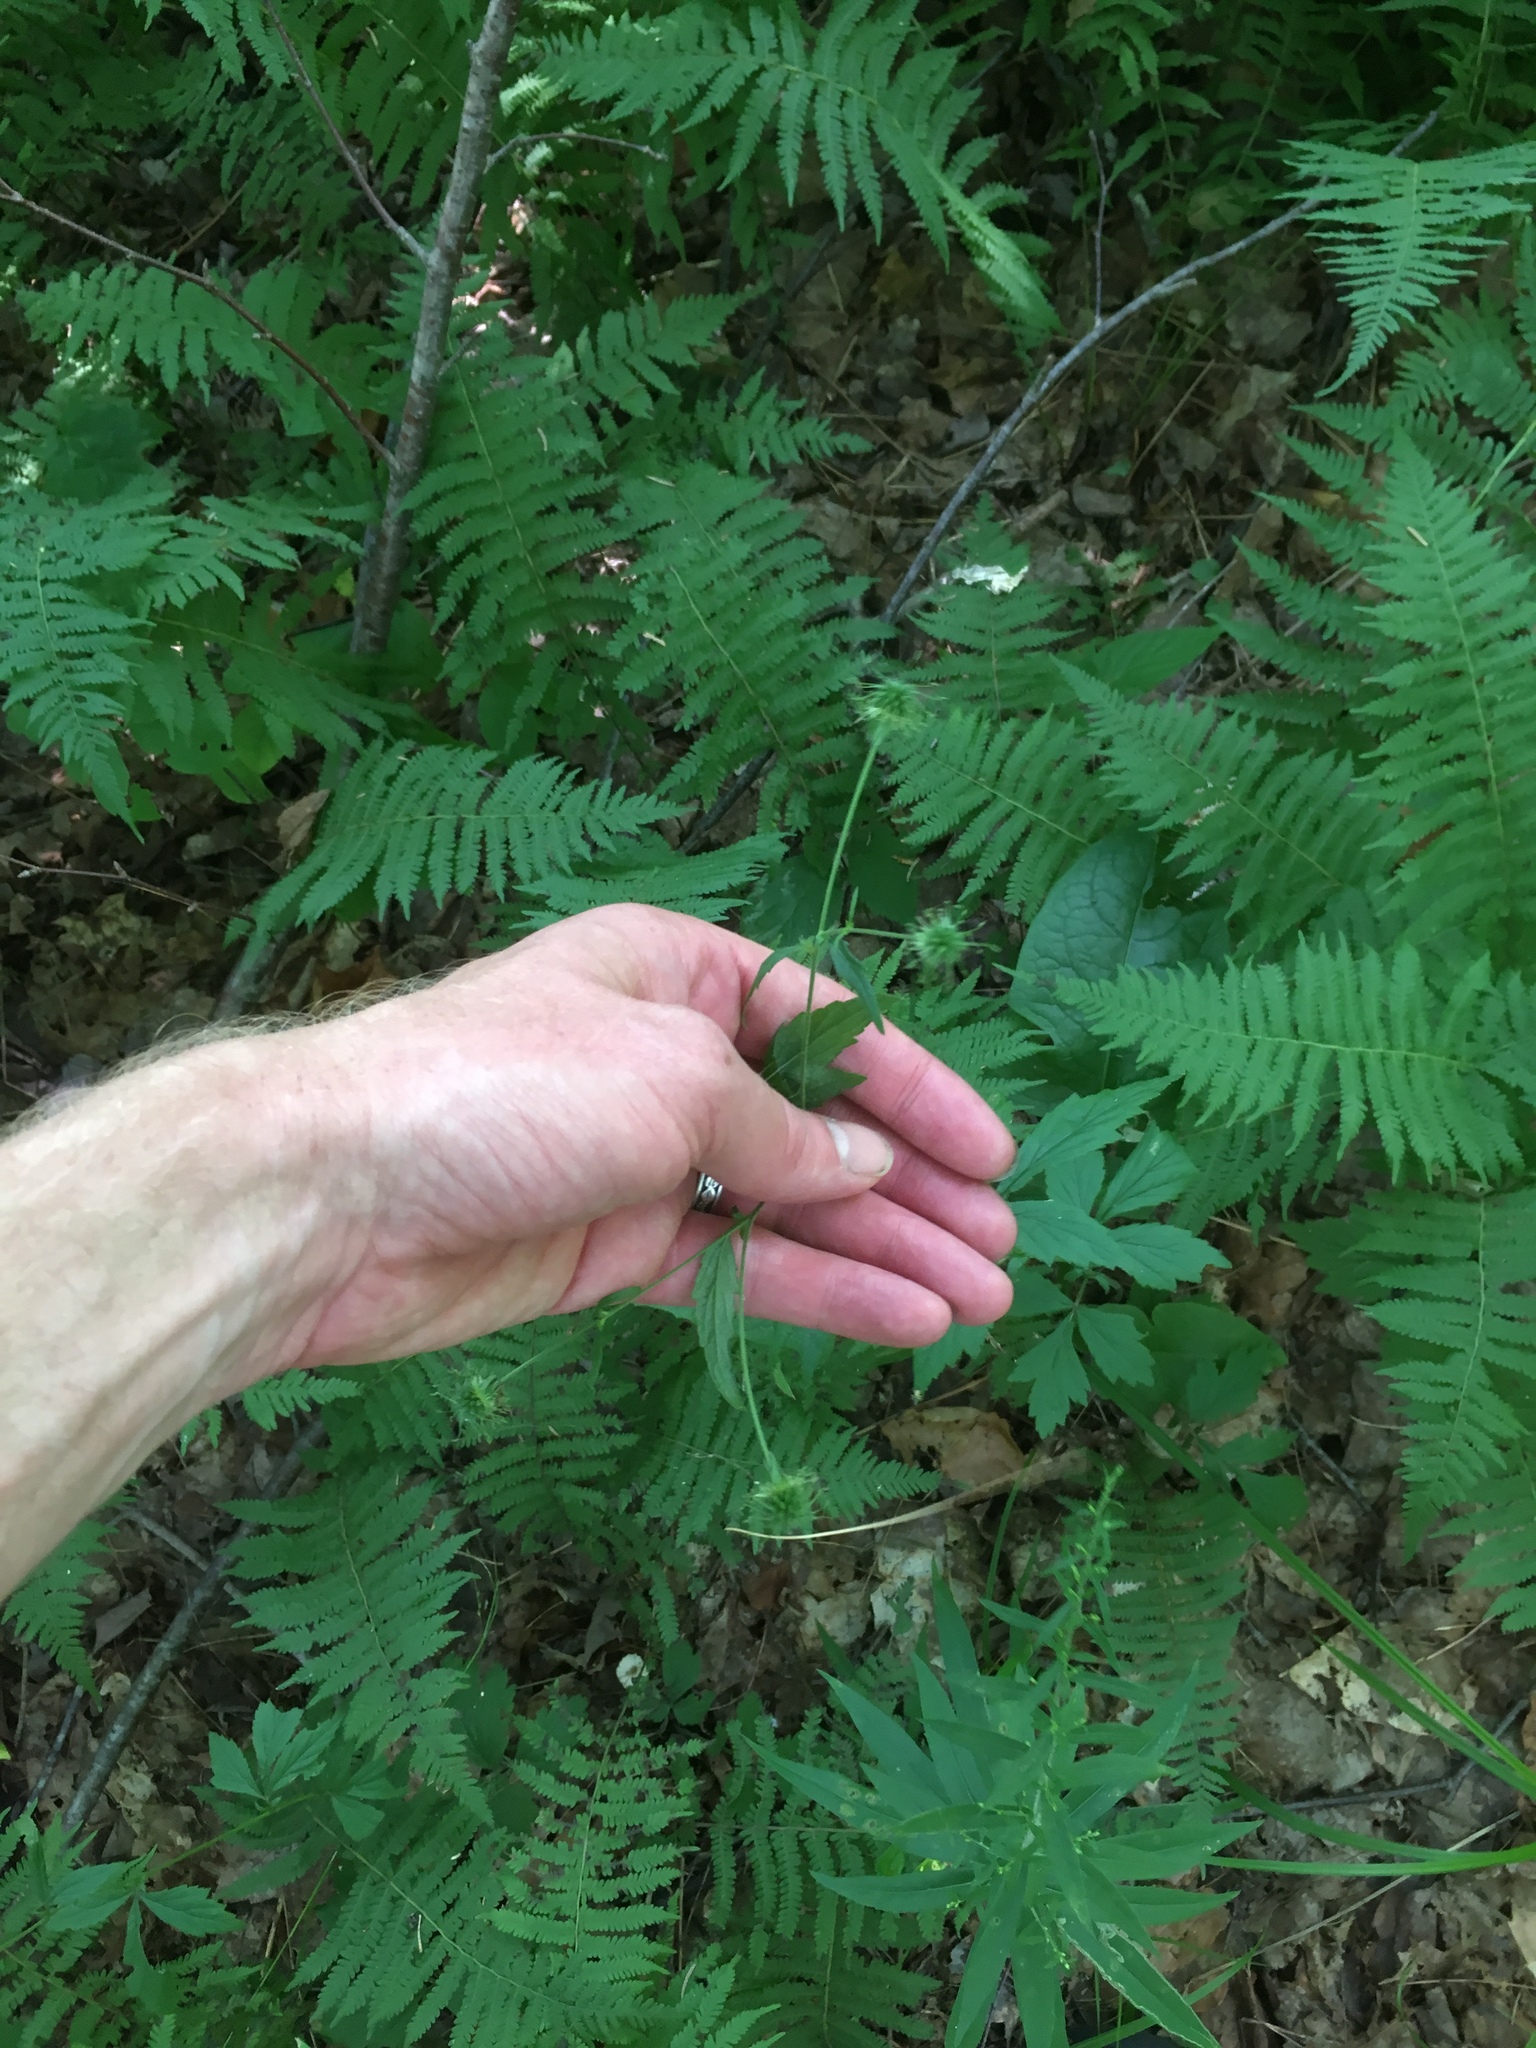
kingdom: Plantae
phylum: Tracheophyta
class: Magnoliopsida
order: Rosales
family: Rosaceae
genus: Geum
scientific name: Geum canadense
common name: White avens
